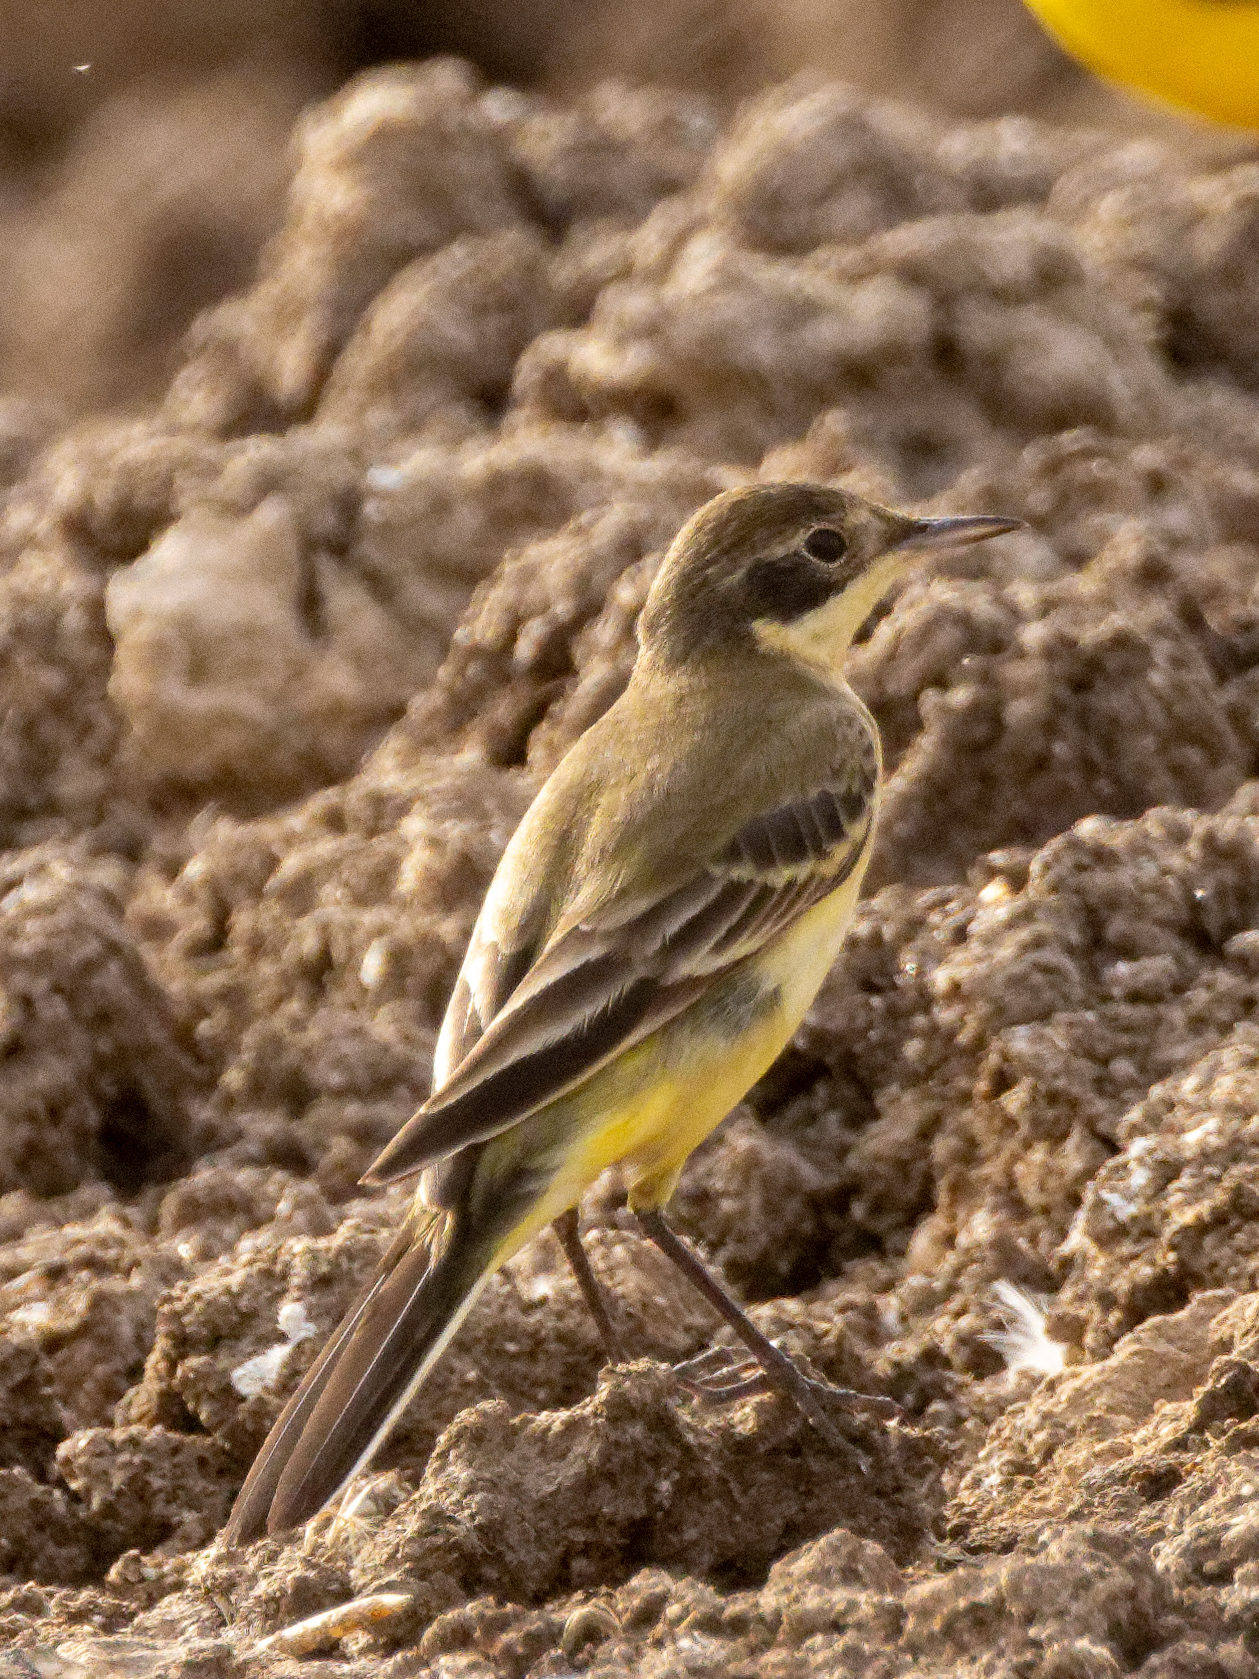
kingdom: Animalia
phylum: Chordata
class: Aves
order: Passeriformes
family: Motacillidae
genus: Motacilla
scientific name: Motacilla flava
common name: Western yellow wagtail
